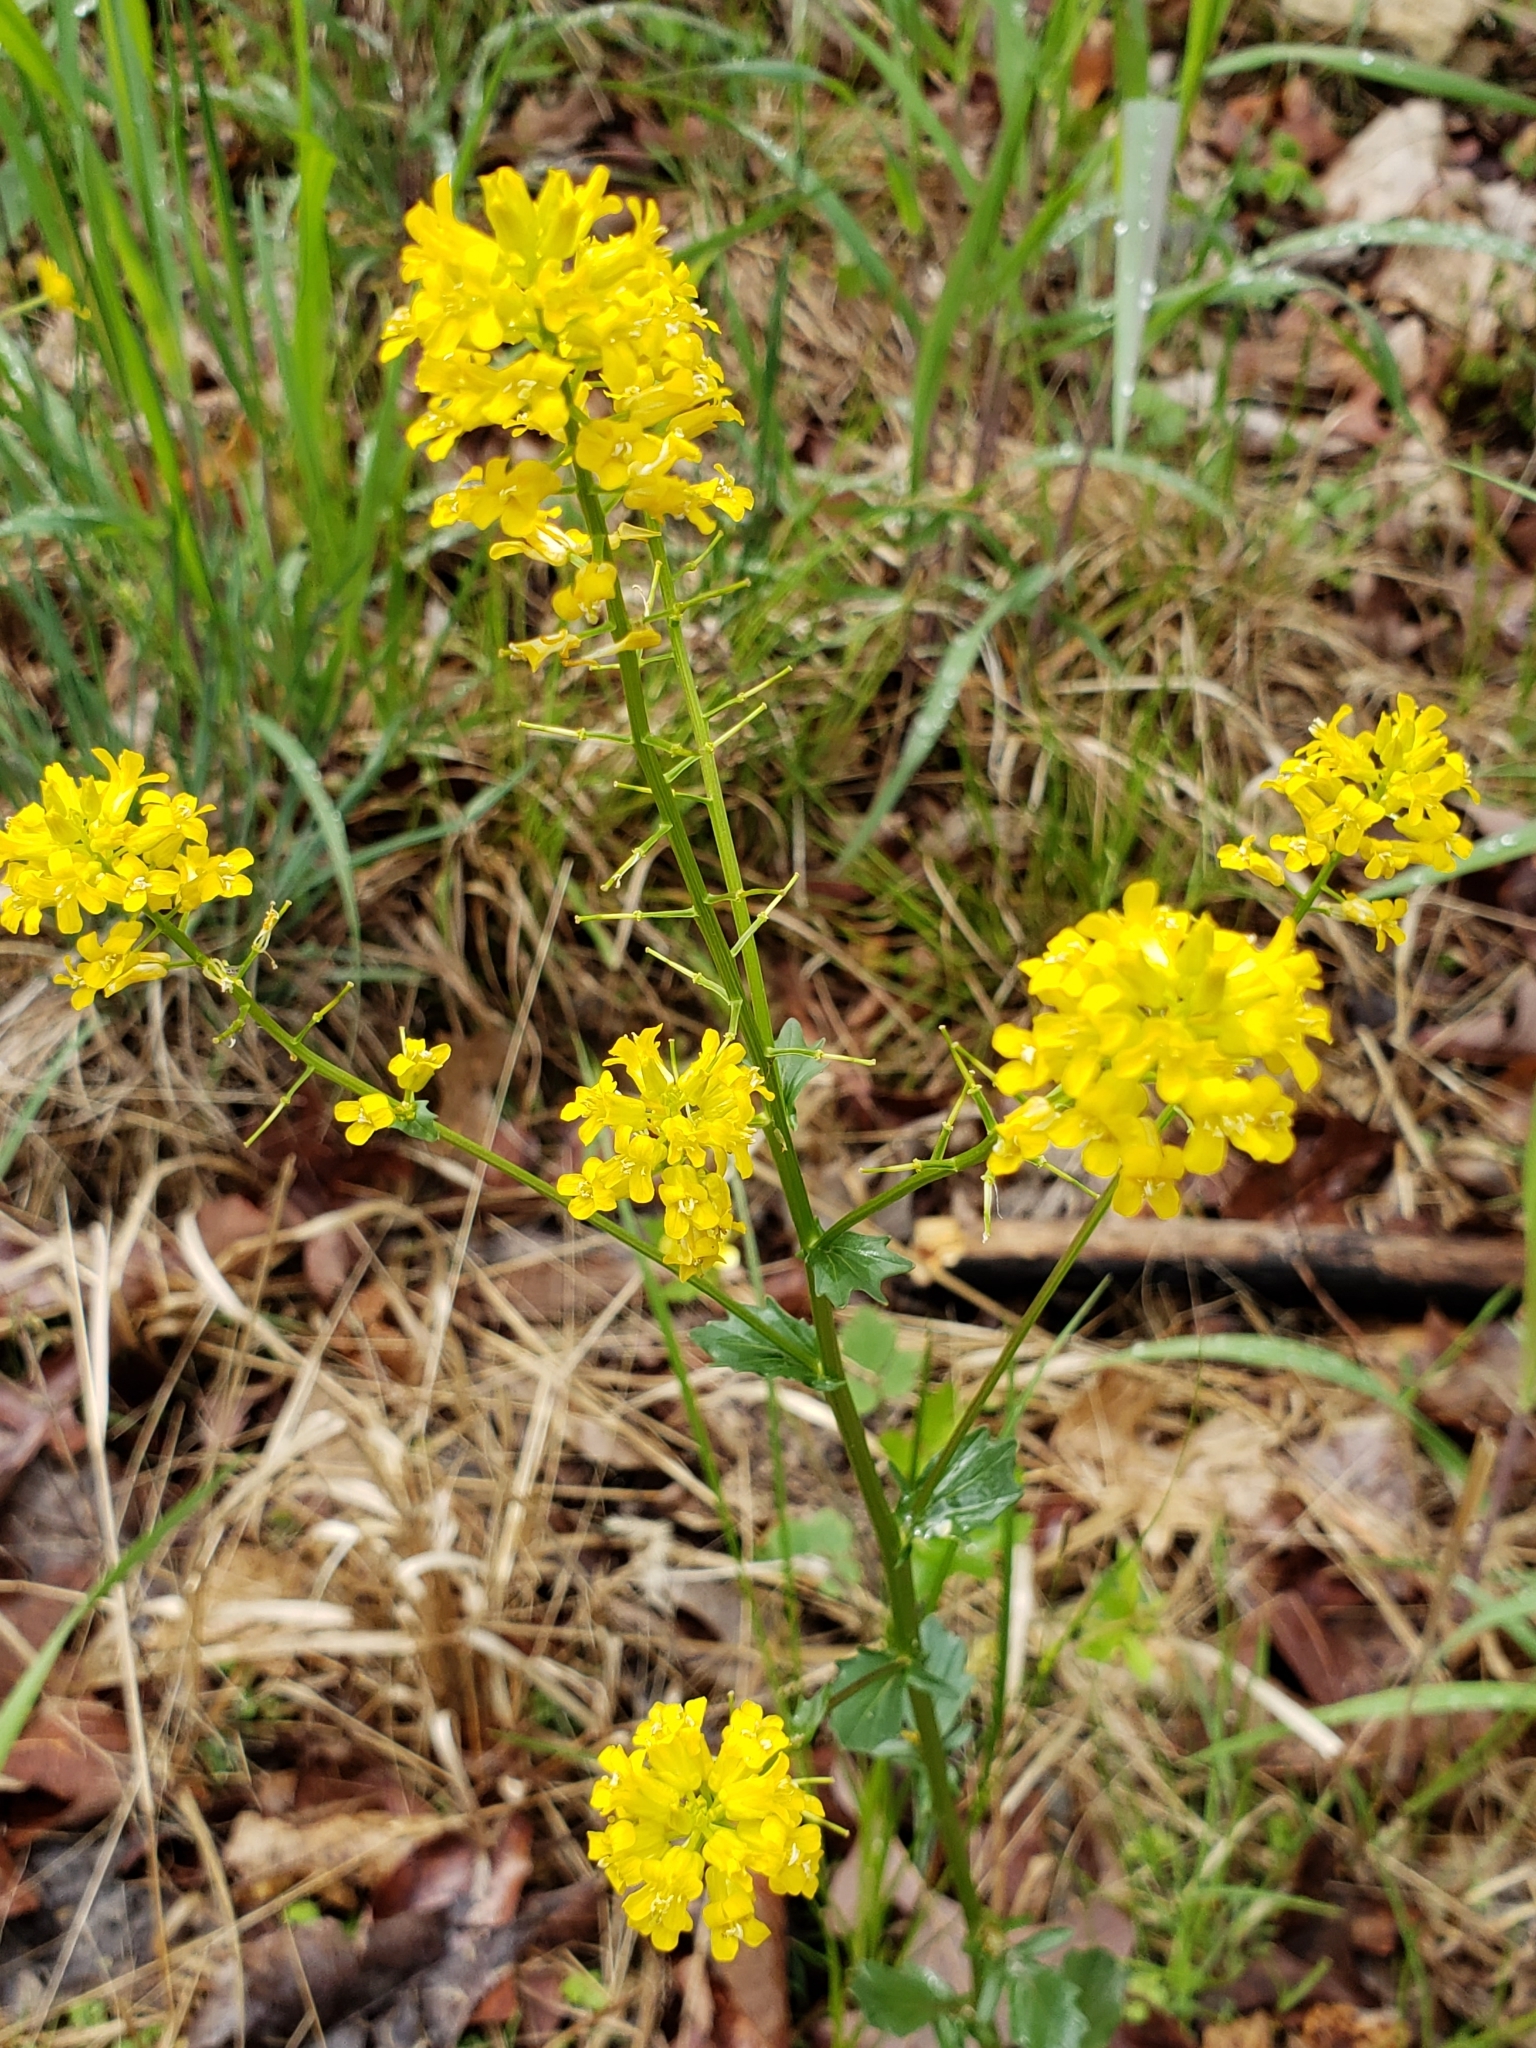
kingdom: Plantae
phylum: Tracheophyta
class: Magnoliopsida
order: Brassicales
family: Brassicaceae
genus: Barbarea
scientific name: Barbarea vulgaris
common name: Cressy-greens
